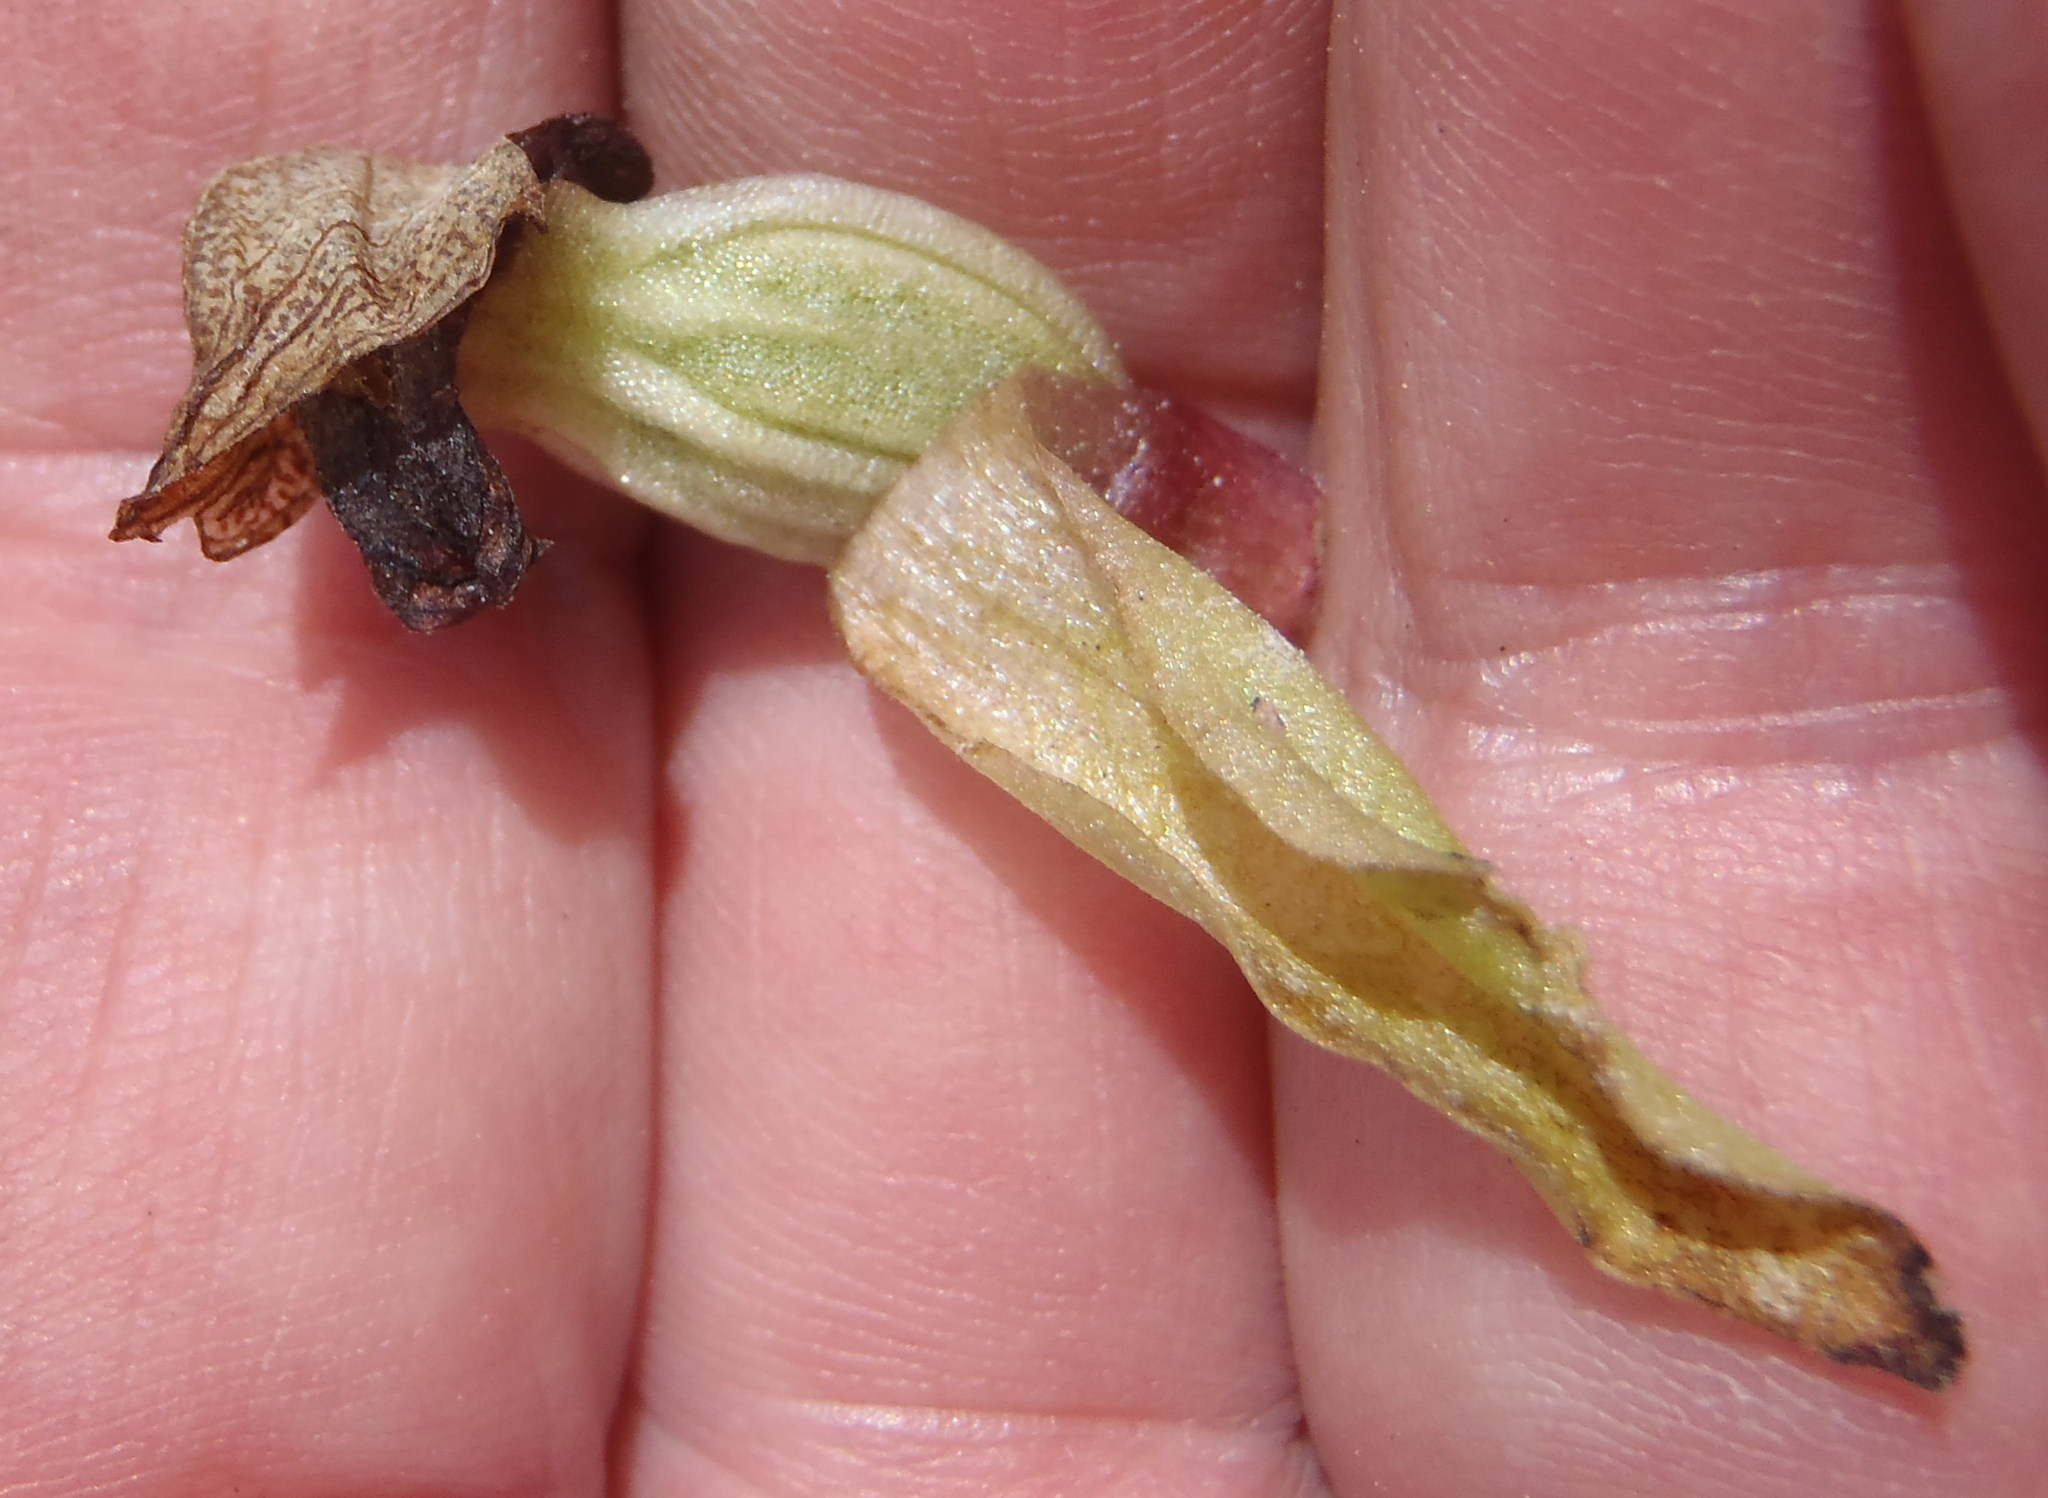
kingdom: Plantae
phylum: Tracheophyta
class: Liliopsida
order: Asparagales
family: Orchidaceae
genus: Satyrium
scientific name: Satyrium pumilum
